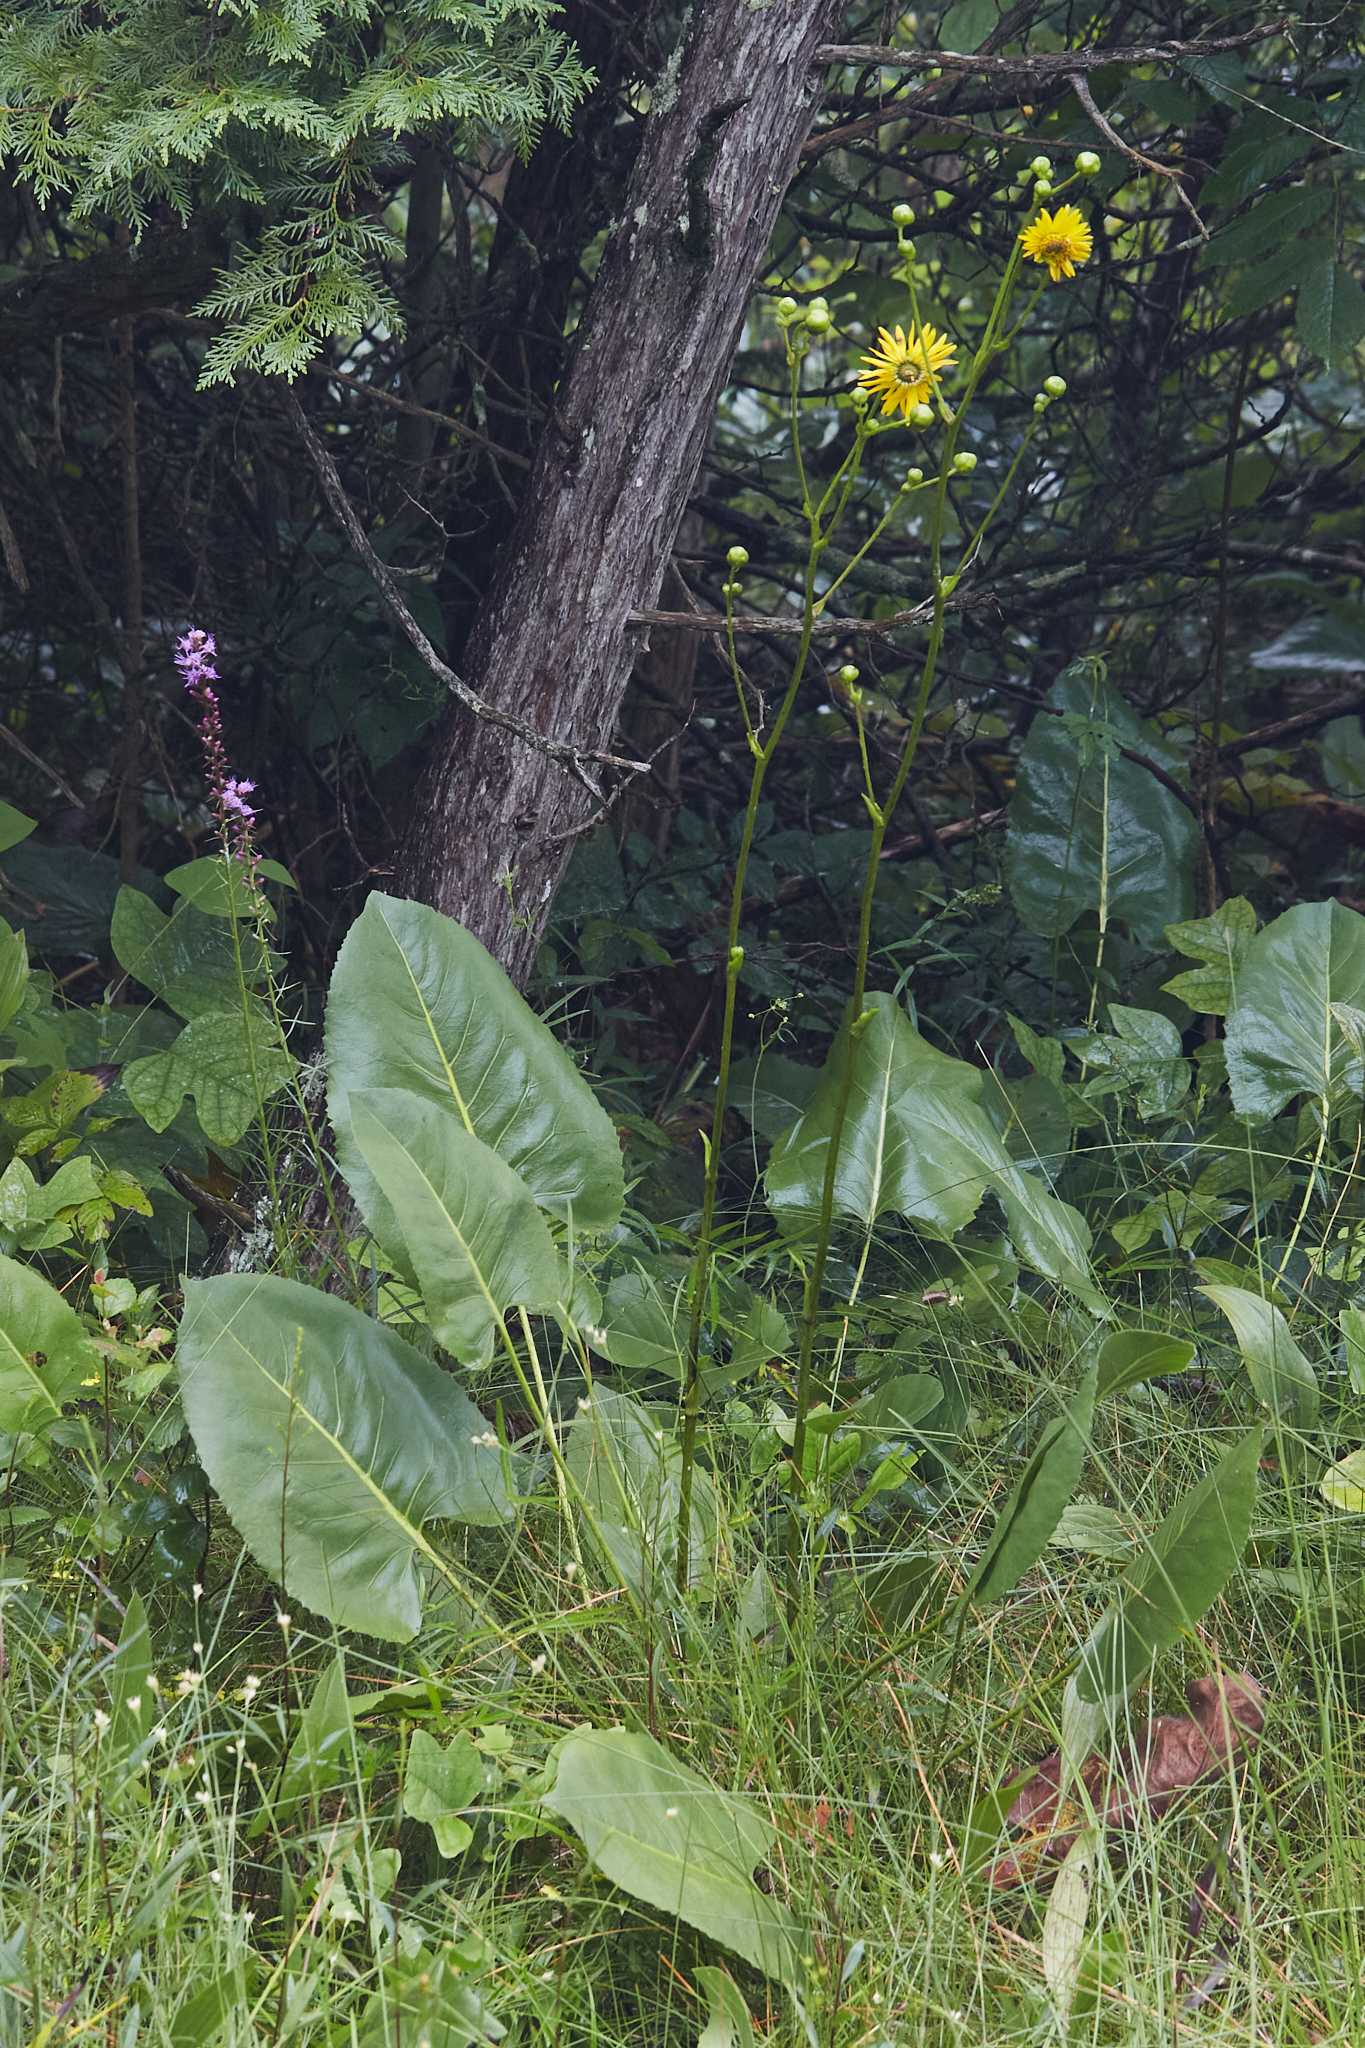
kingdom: Plantae
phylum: Tracheophyta
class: Magnoliopsida
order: Asterales
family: Asteraceae
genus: Silphium
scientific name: Silphium terebinthinaceum
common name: Basal-leaf rosinweed
